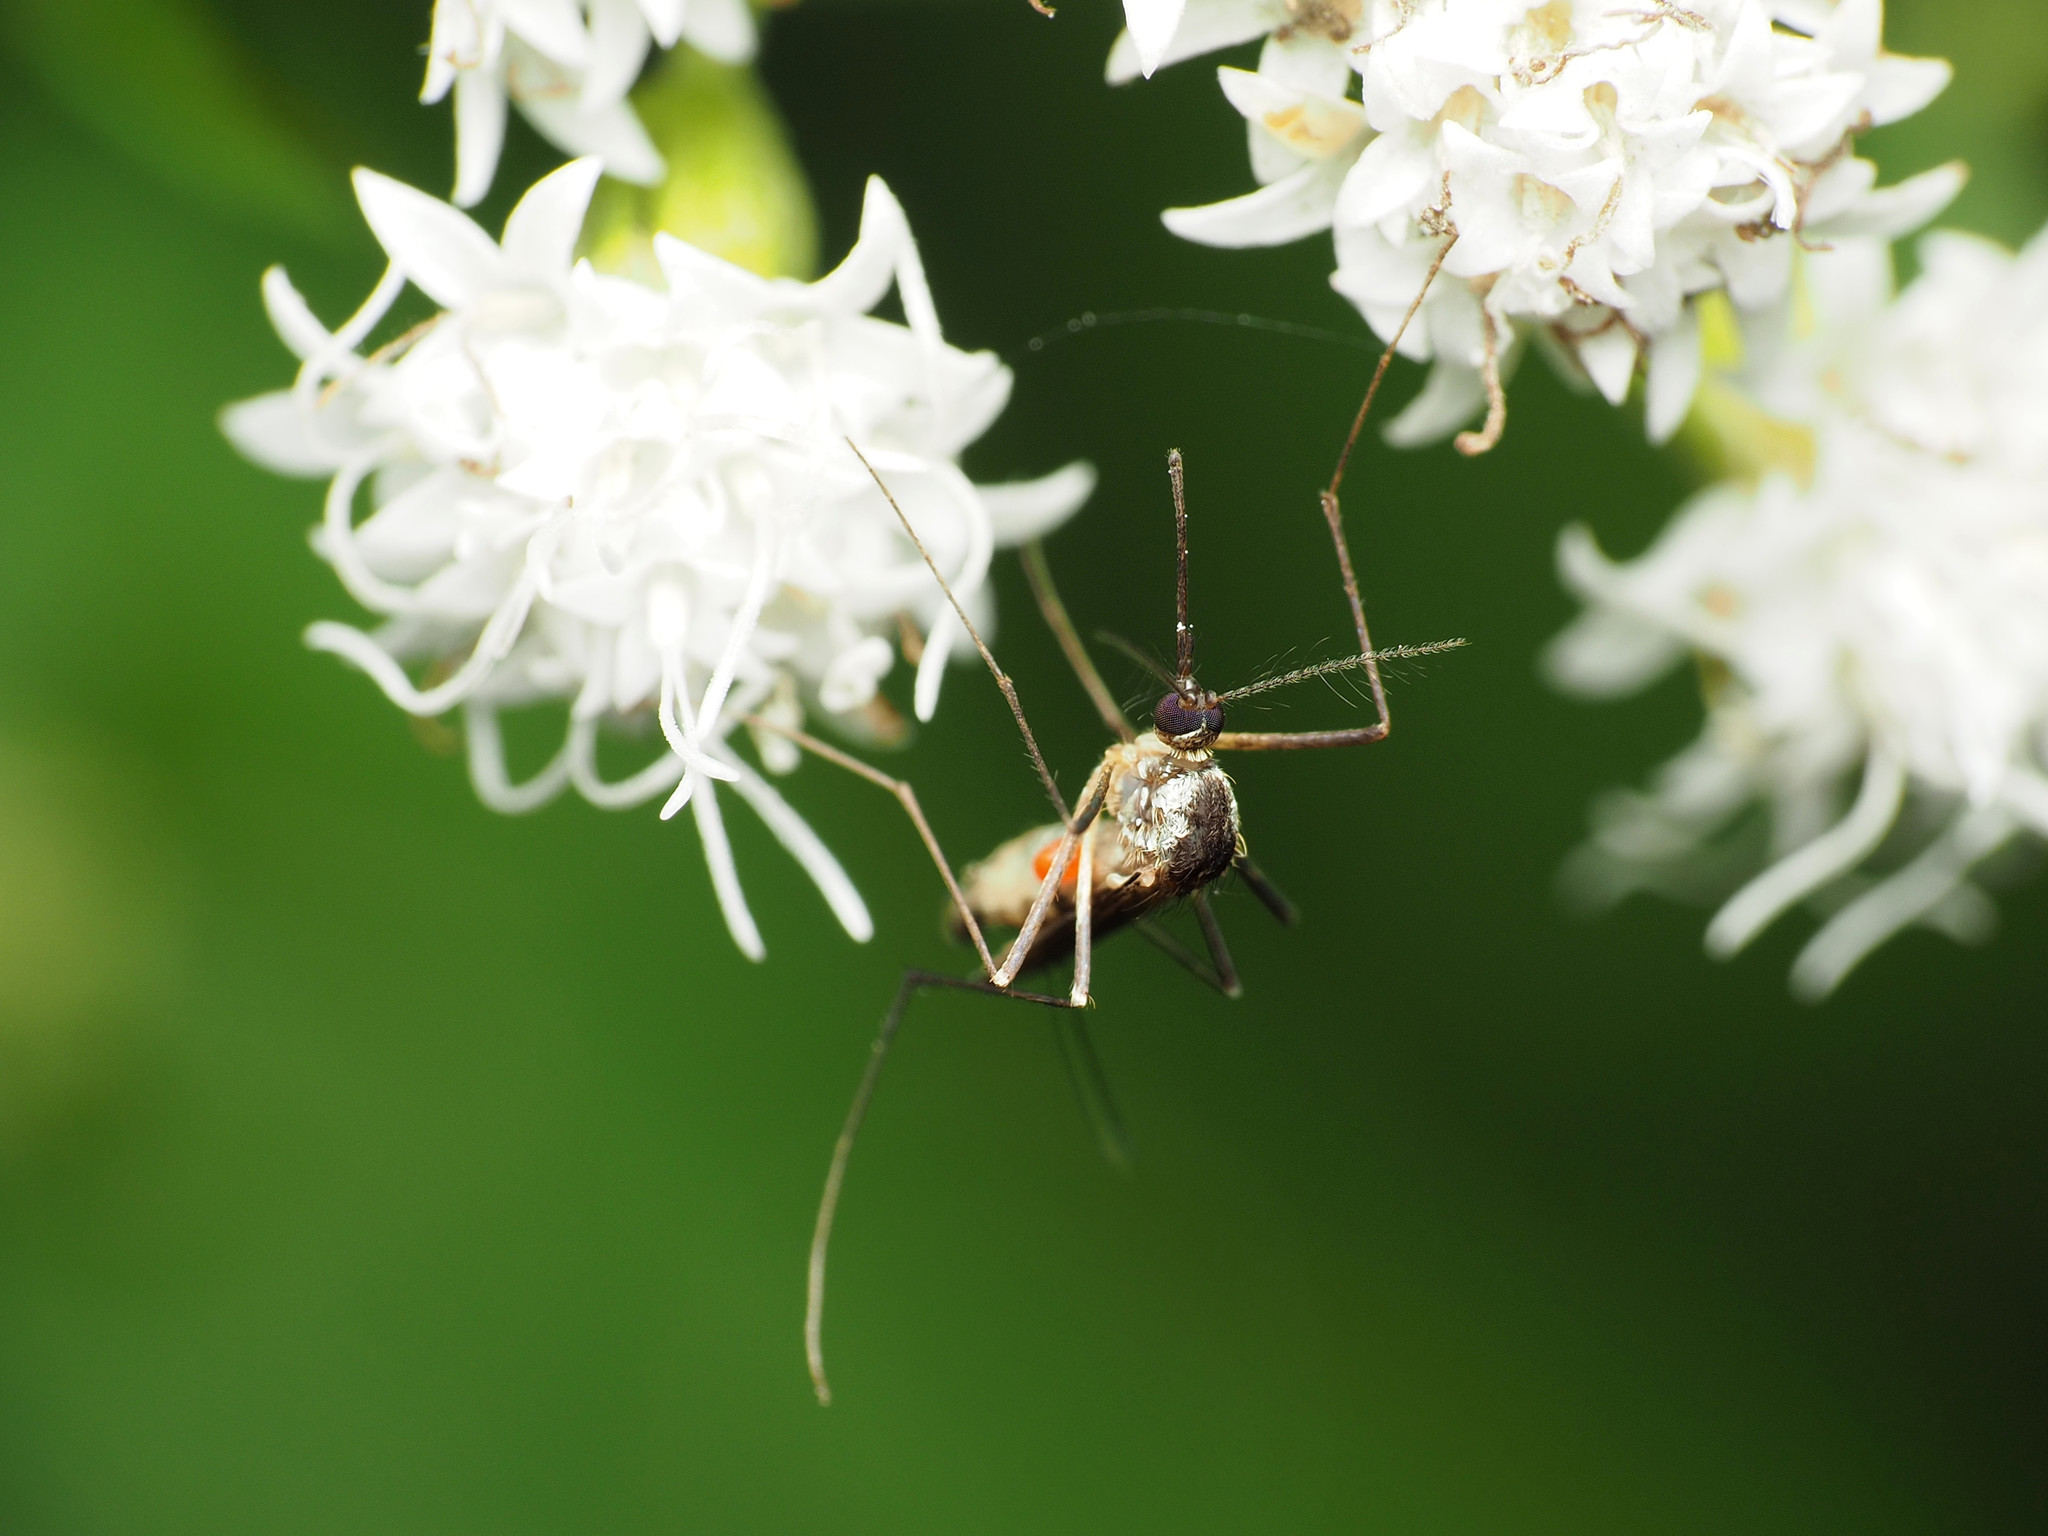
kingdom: Animalia
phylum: Arthropoda
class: Insecta
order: Diptera
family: Culicidae
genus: Aedes
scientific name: Aedes triseriatus
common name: Eastern treehole mosquito
